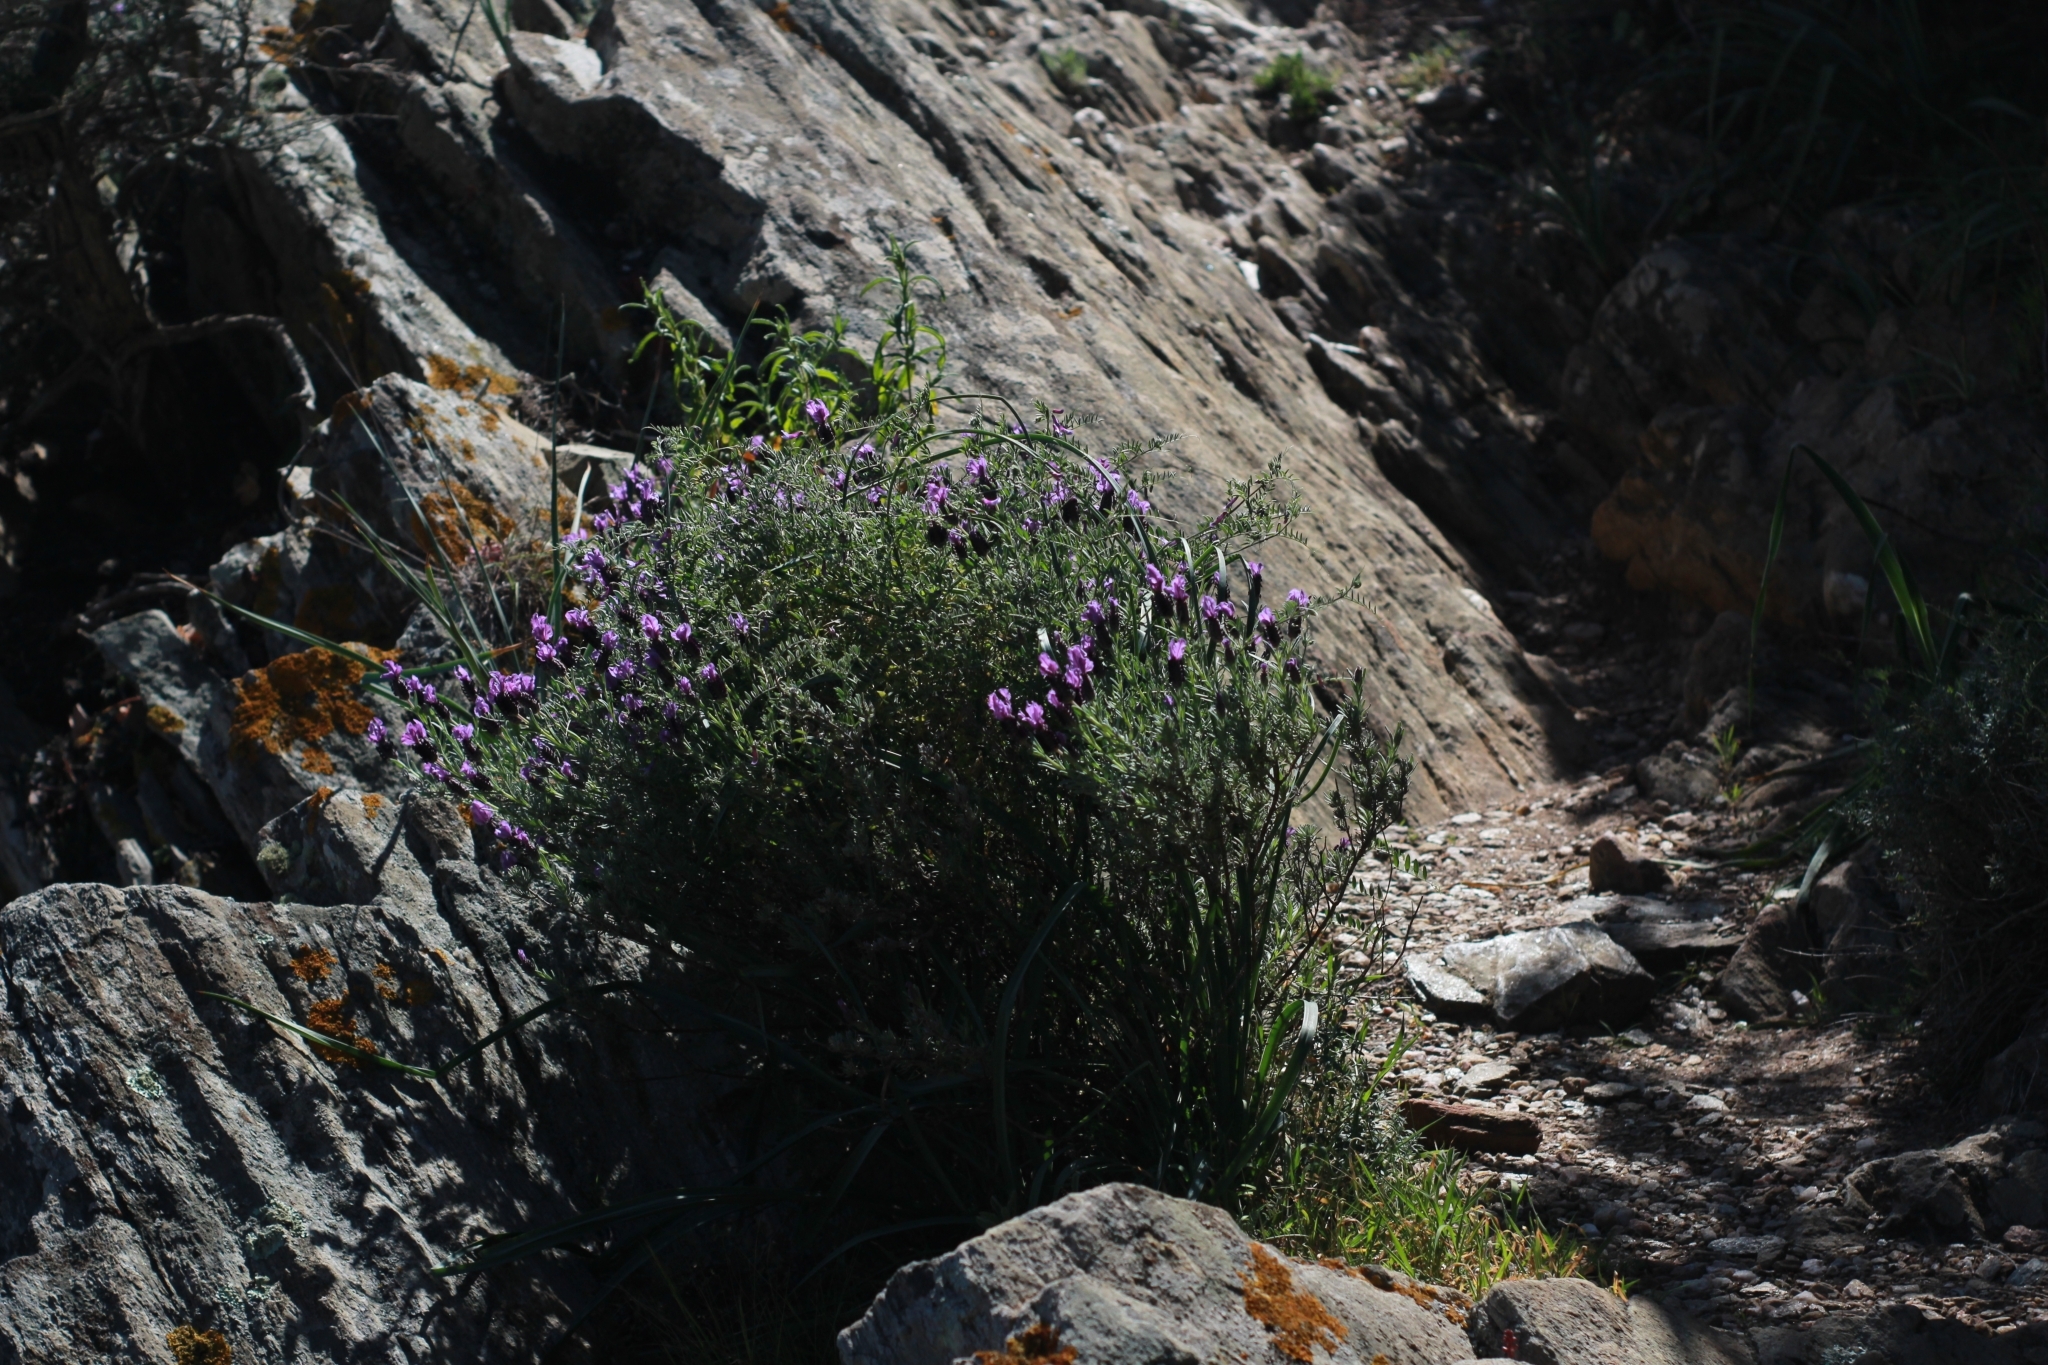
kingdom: Plantae
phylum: Tracheophyta
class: Magnoliopsida
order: Lamiales
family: Lamiaceae
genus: Lavandula
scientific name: Lavandula stoechas
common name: French lavender
